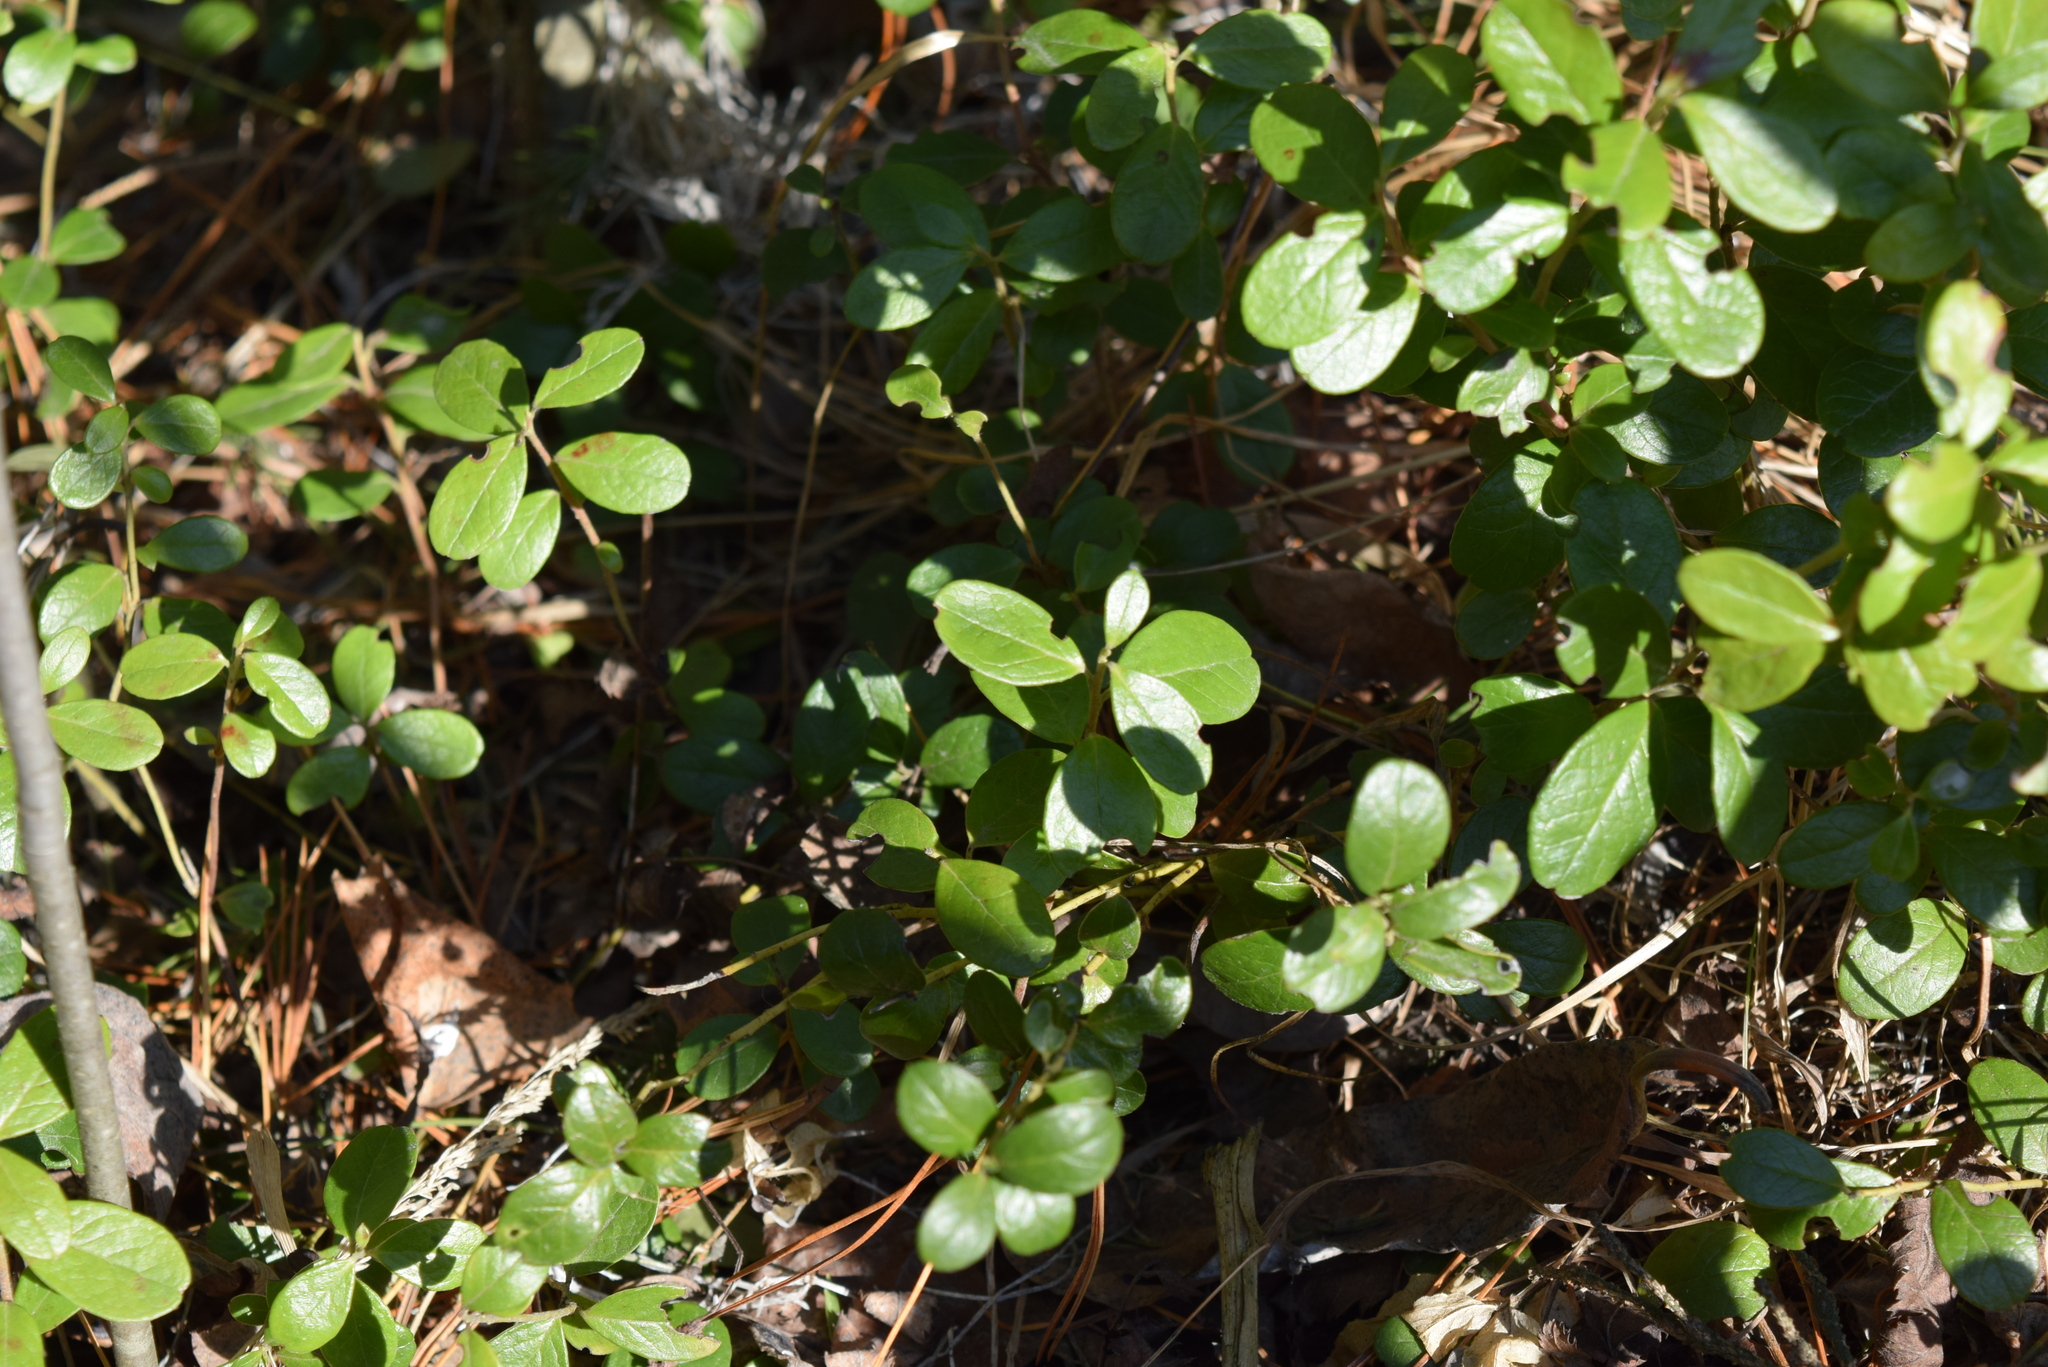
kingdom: Plantae
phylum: Tracheophyta
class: Magnoliopsida
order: Ericales
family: Ericaceae
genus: Vaccinium
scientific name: Vaccinium vitis-idaea
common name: Cowberry
